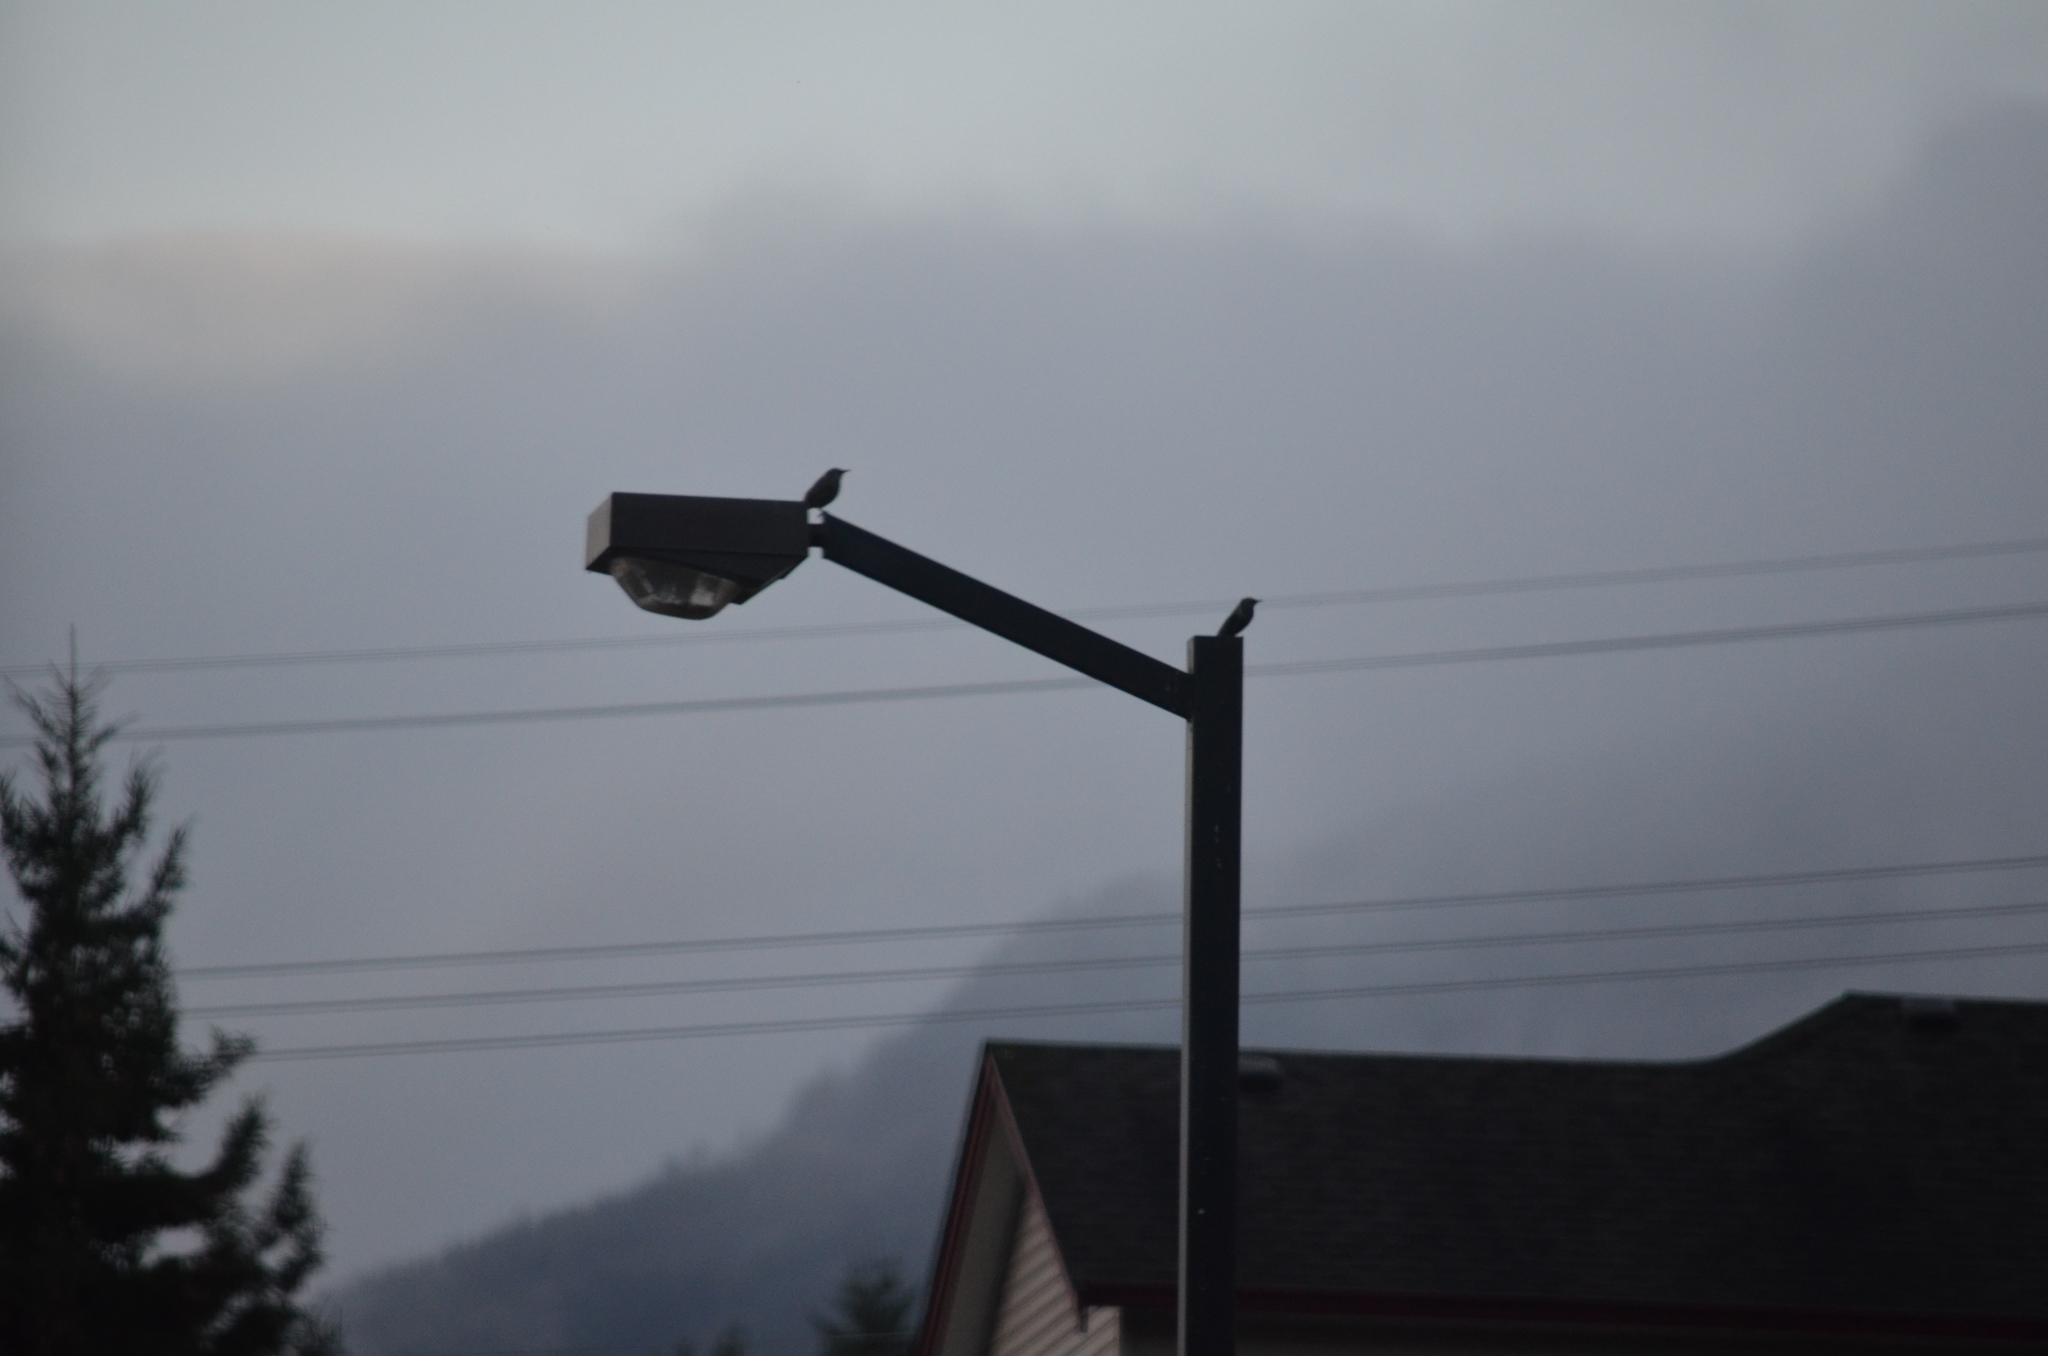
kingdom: Animalia
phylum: Chordata
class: Aves
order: Passeriformes
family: Sturnidae
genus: Sturnus
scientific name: Sturnus vulgaris
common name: Common starling
